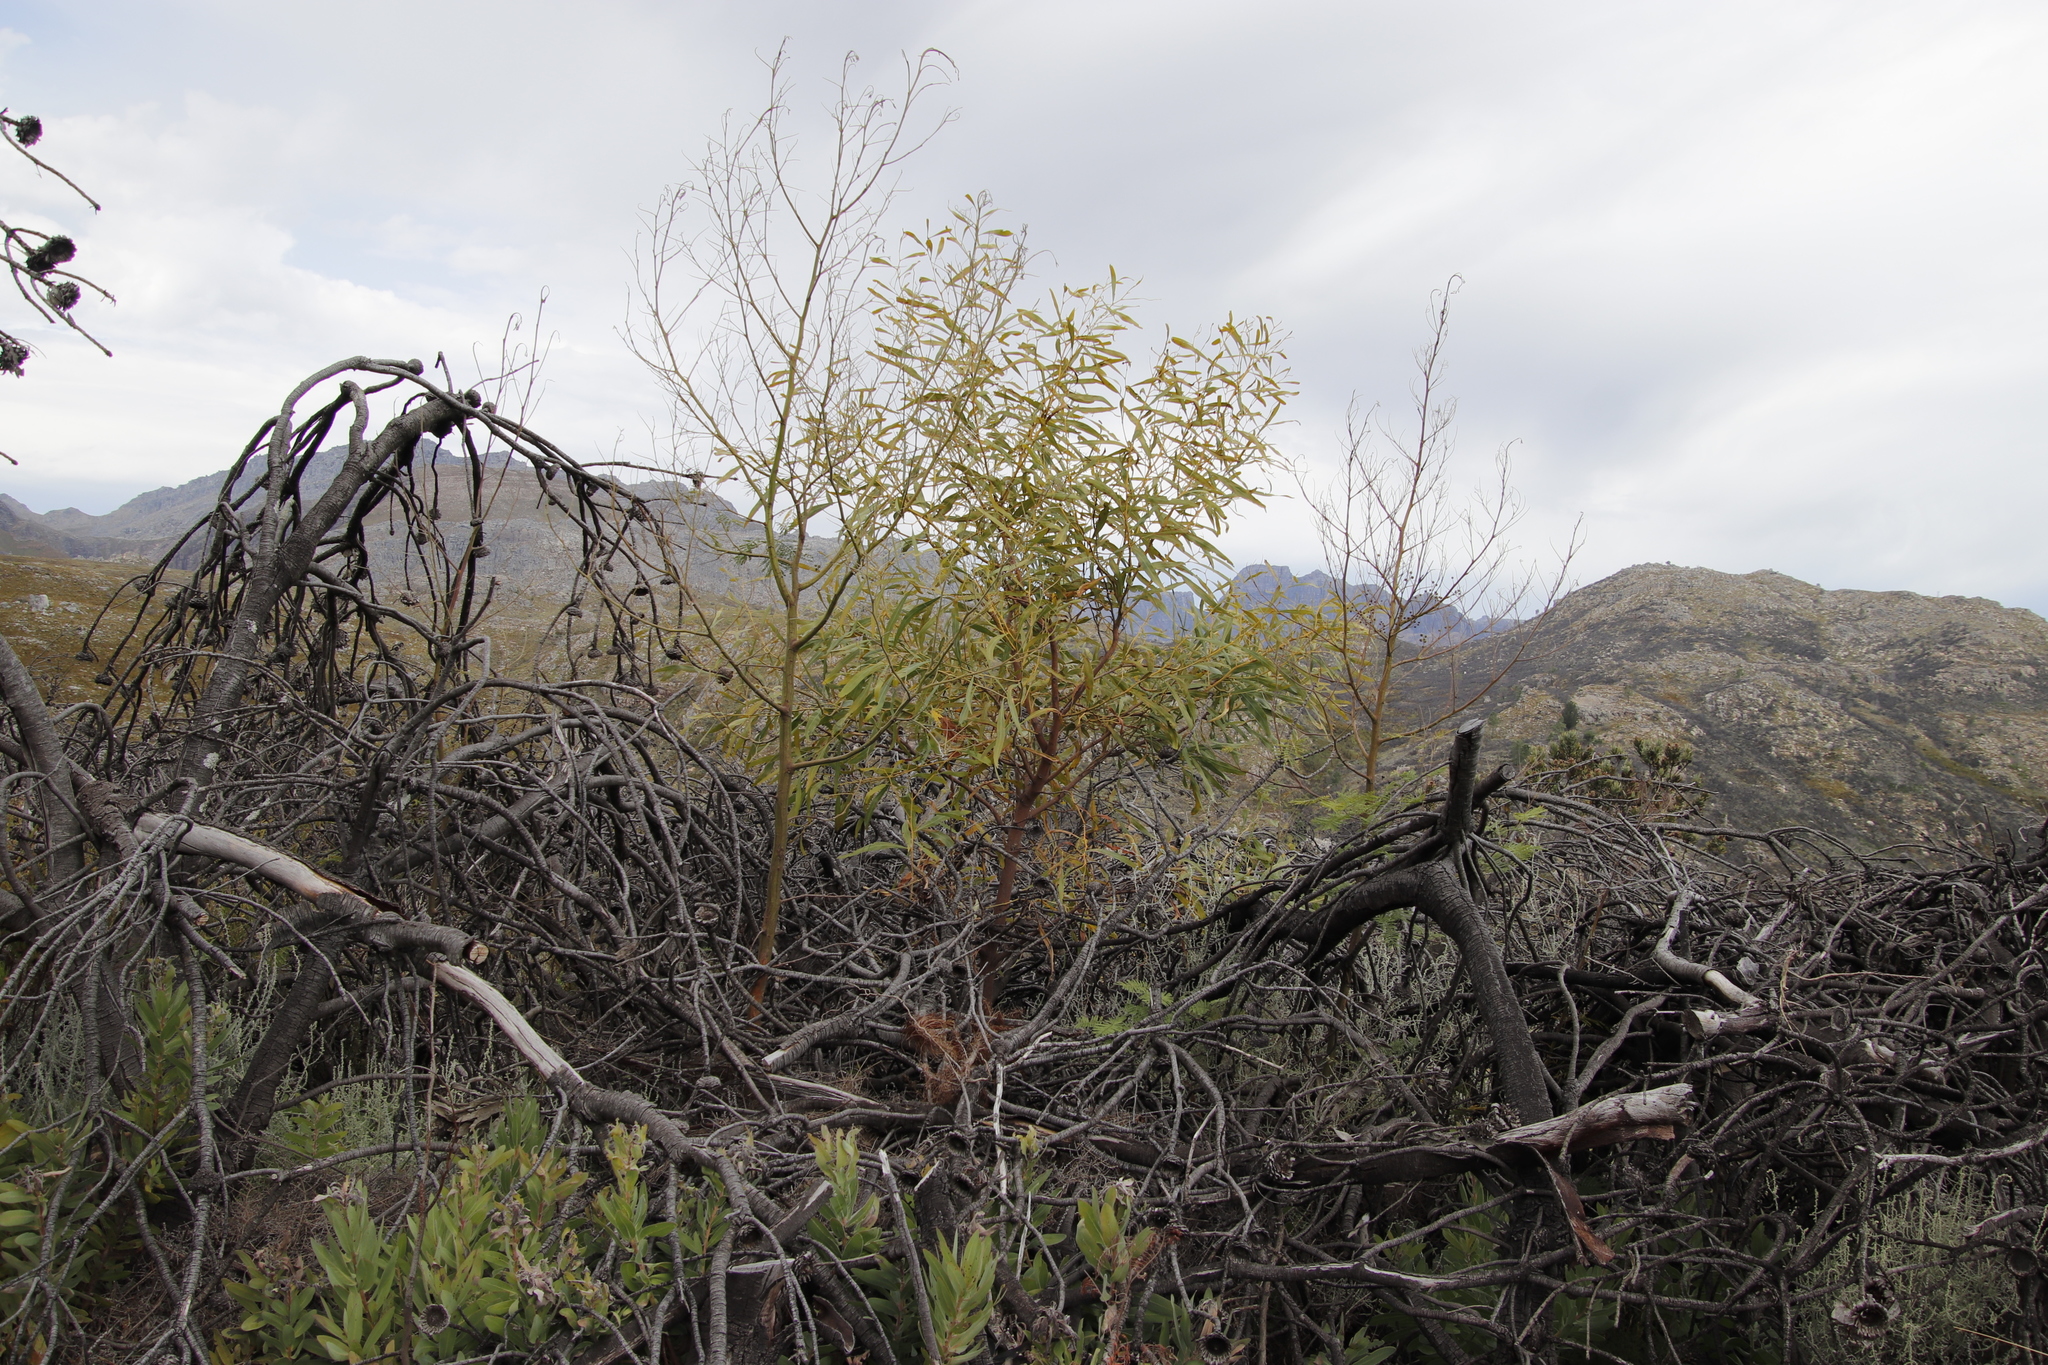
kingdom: Plantae
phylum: Tracheophyta
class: Magnoliopsida
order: Fabales
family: Fabaceae
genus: Acacia
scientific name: Acacia saligna
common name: Orange wattle
